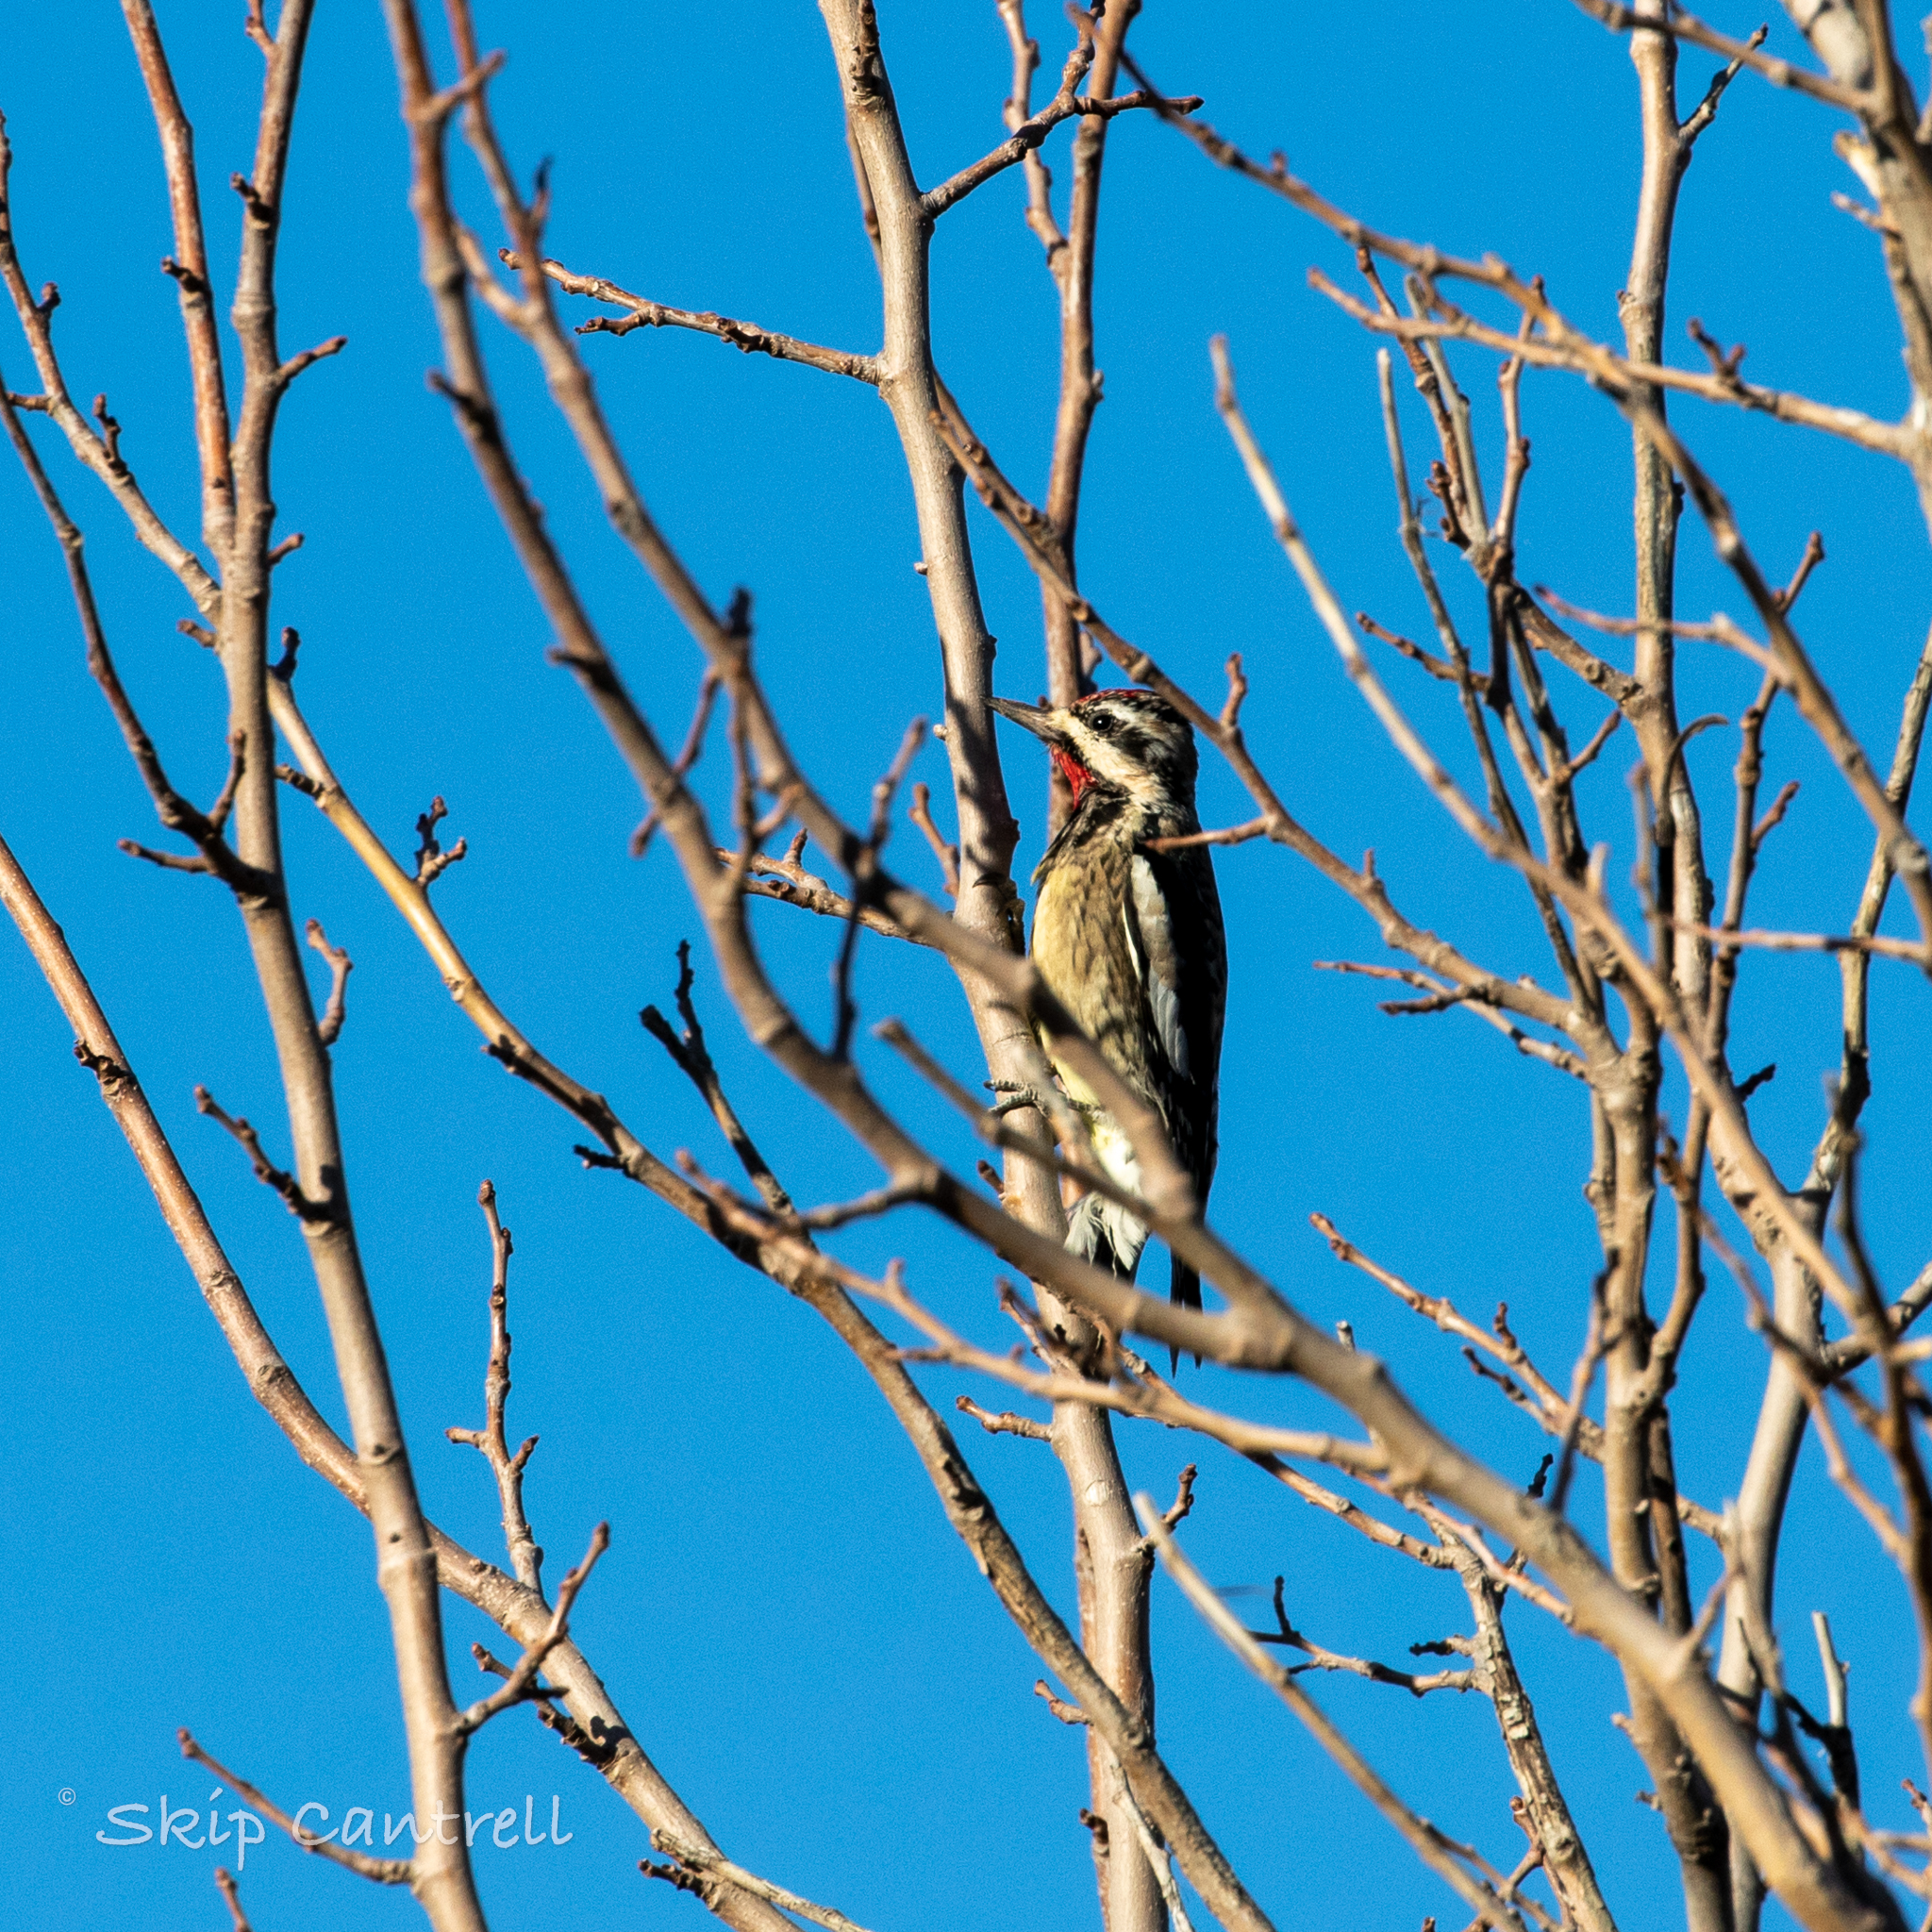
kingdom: Animalia
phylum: Chordata
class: Aves
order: Piciformes
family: Picidae
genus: Sphyrapicus
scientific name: Sphyrapicus varius
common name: Yellow-bellied sapsucker
